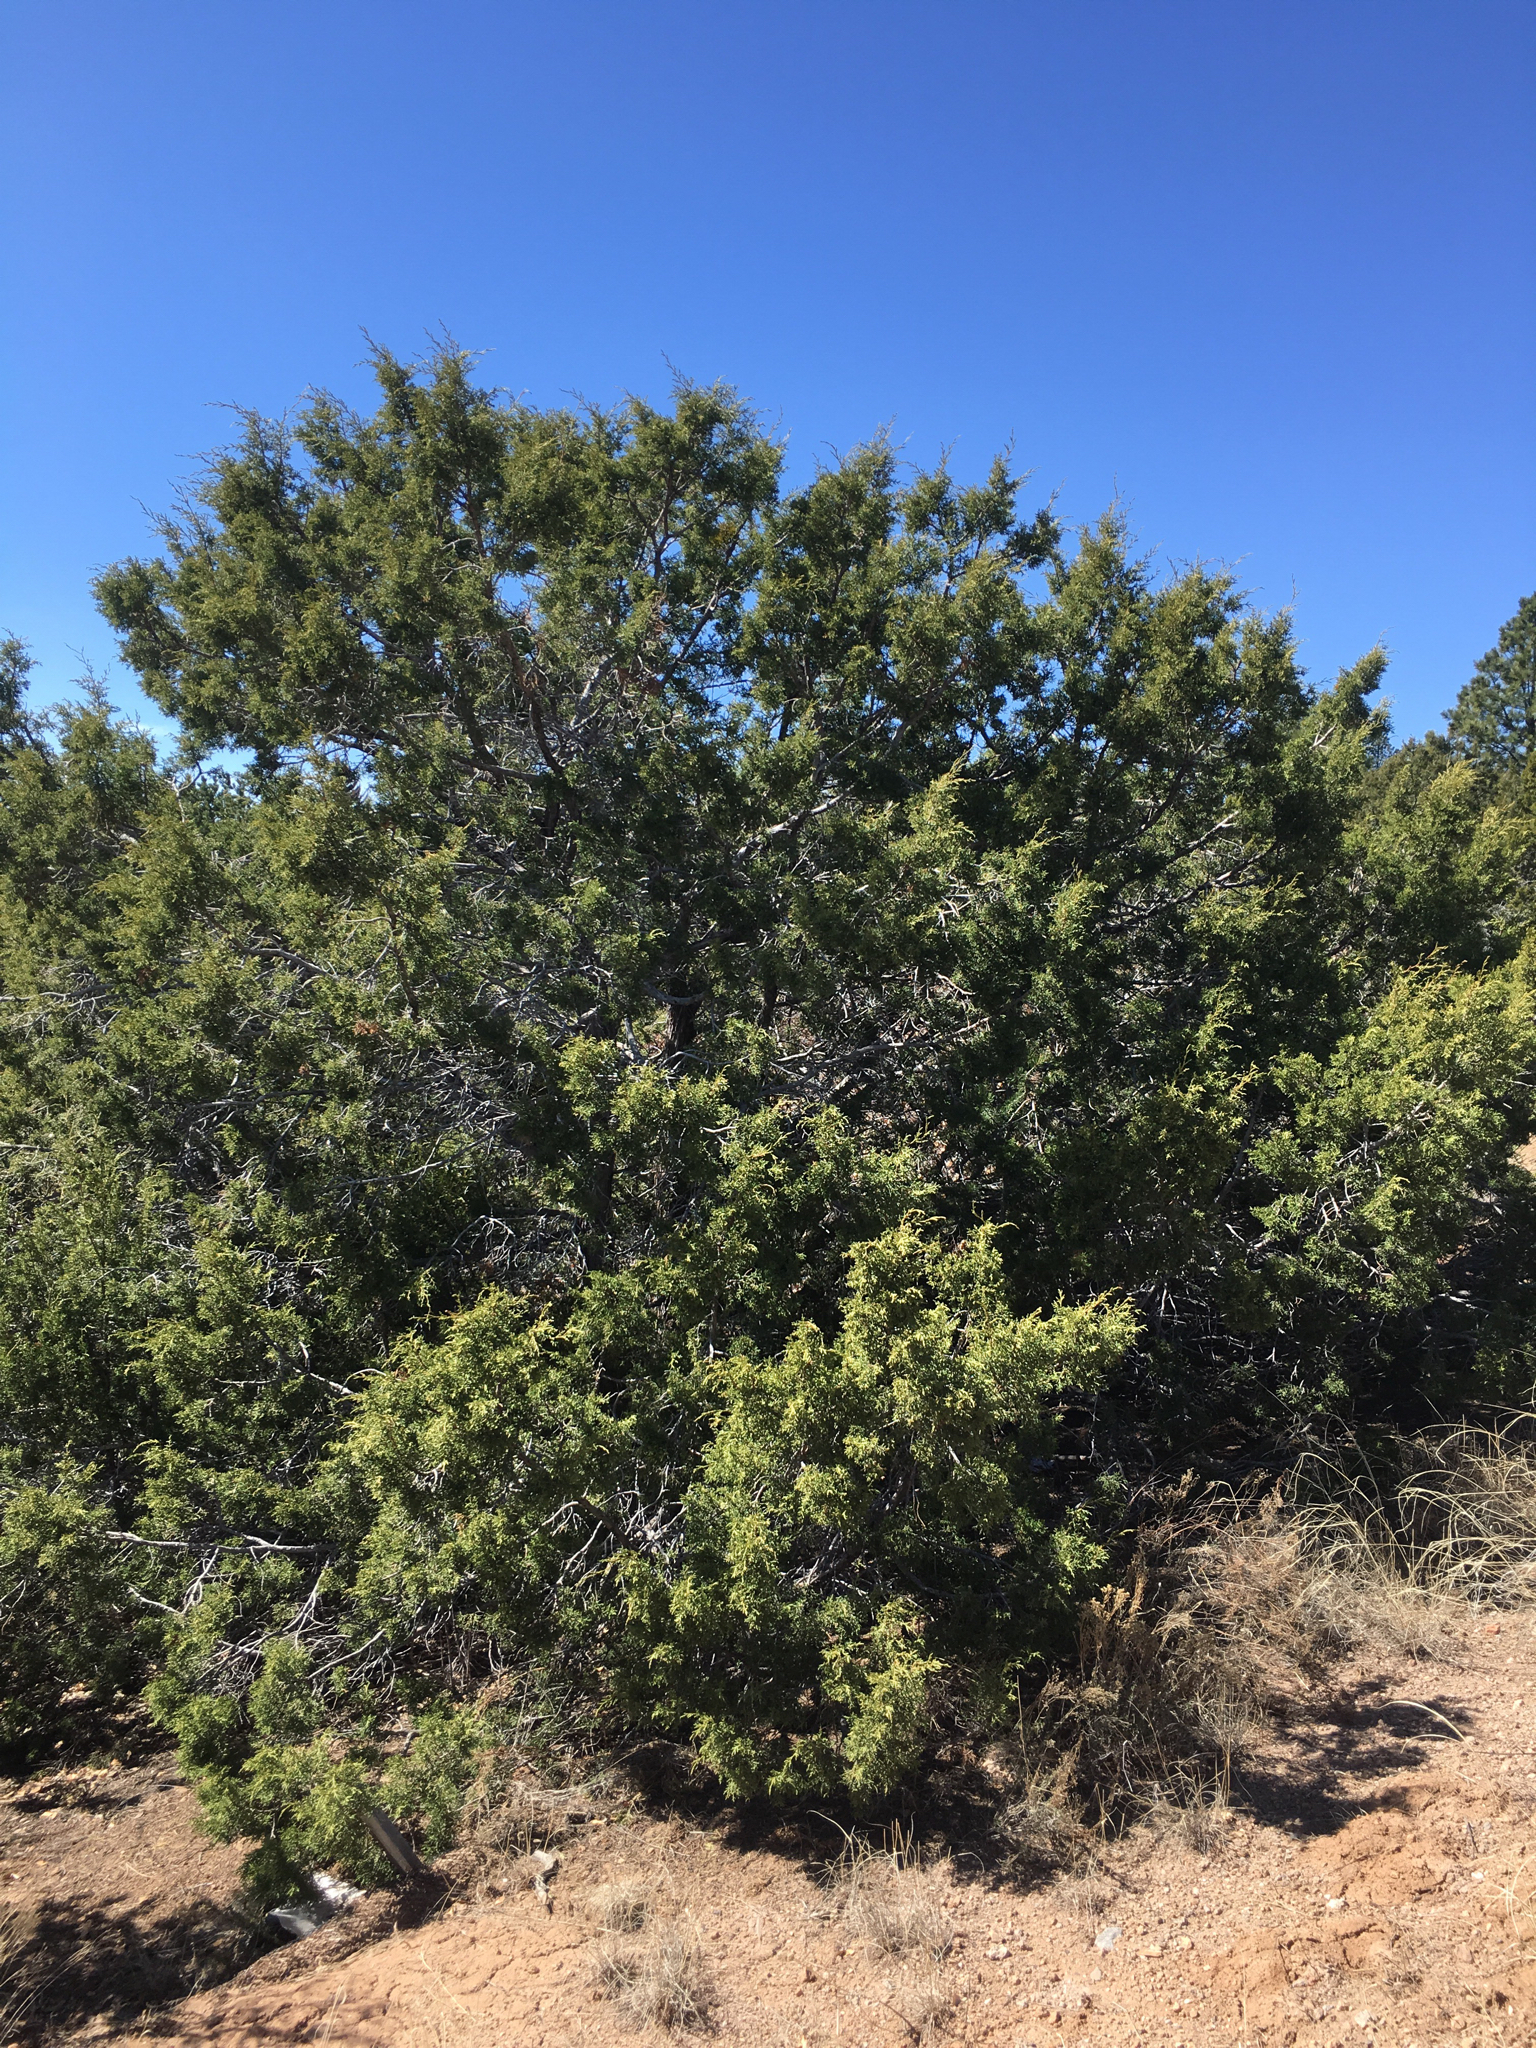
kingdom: Plantae
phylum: Tracheophyta
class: Pinopsida
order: Pinales
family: Cupressaceae
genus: Juniperus
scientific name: Juniperus monosperma
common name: One-seed juniper
